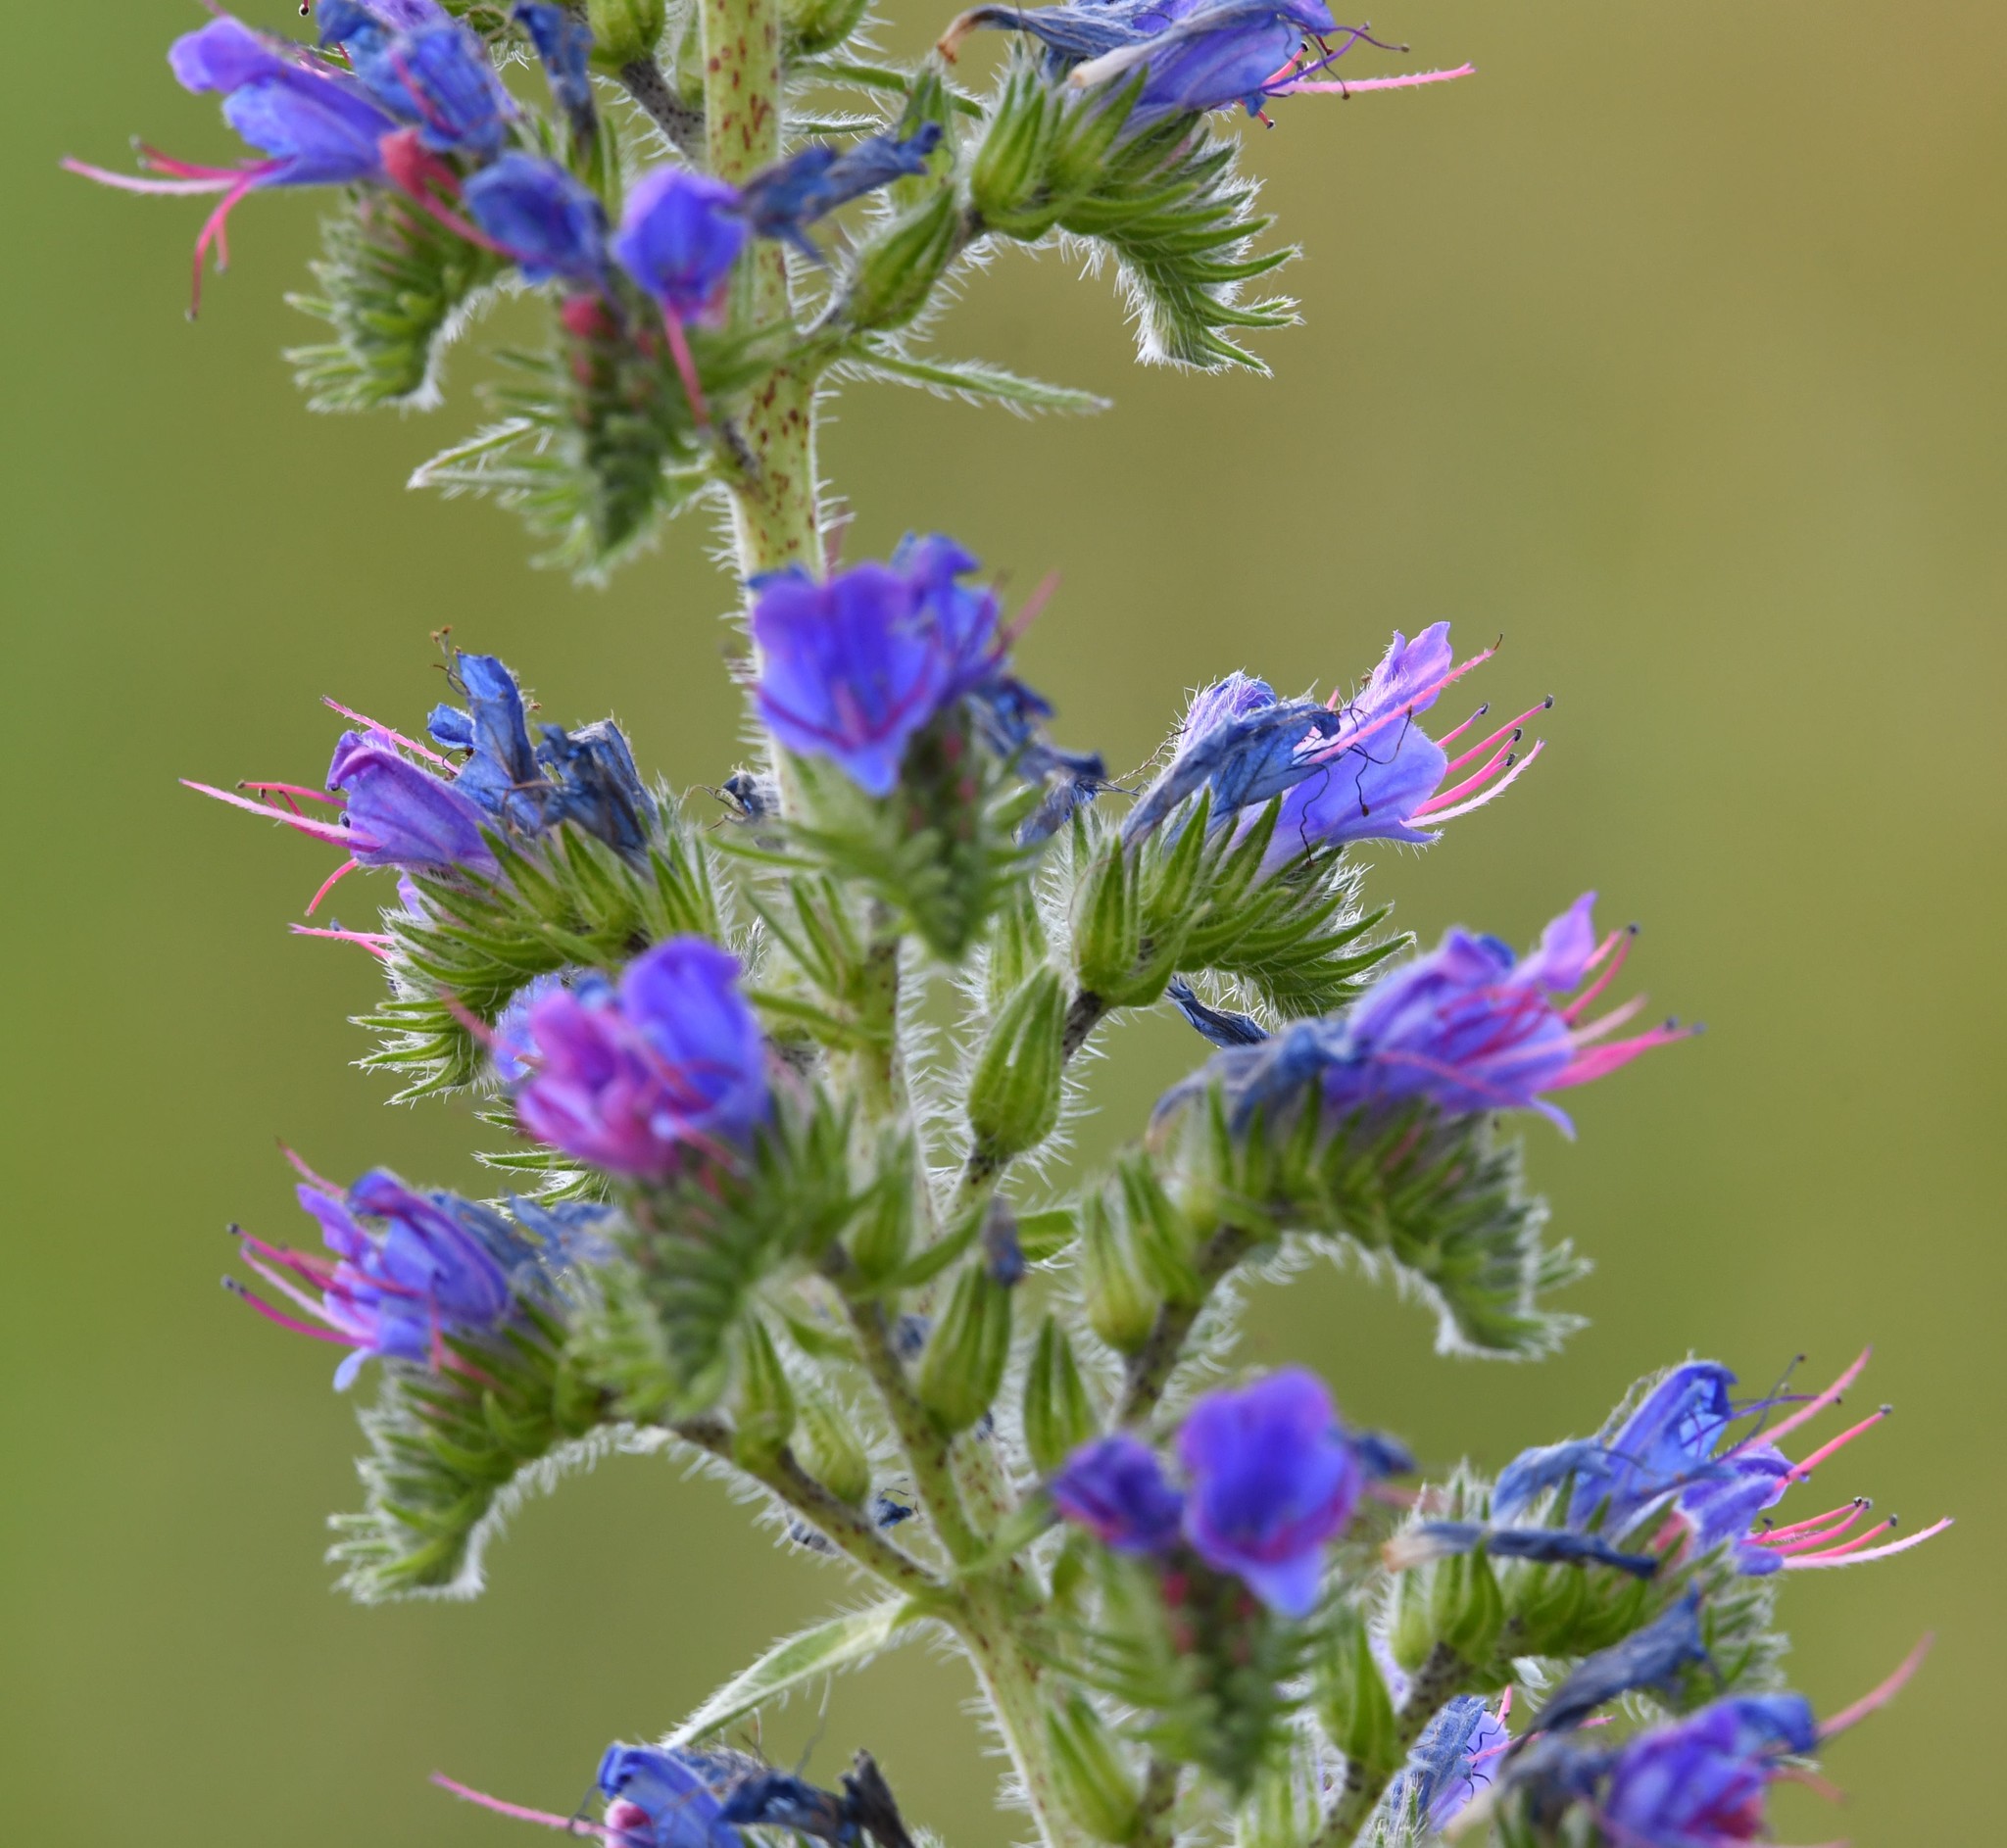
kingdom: Plantae
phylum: Tracheophyta
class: Magnoliopsida
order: Boraginales
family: Boraginaceae
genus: Echium
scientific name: Echium vulgare
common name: Common viper's bugloss
